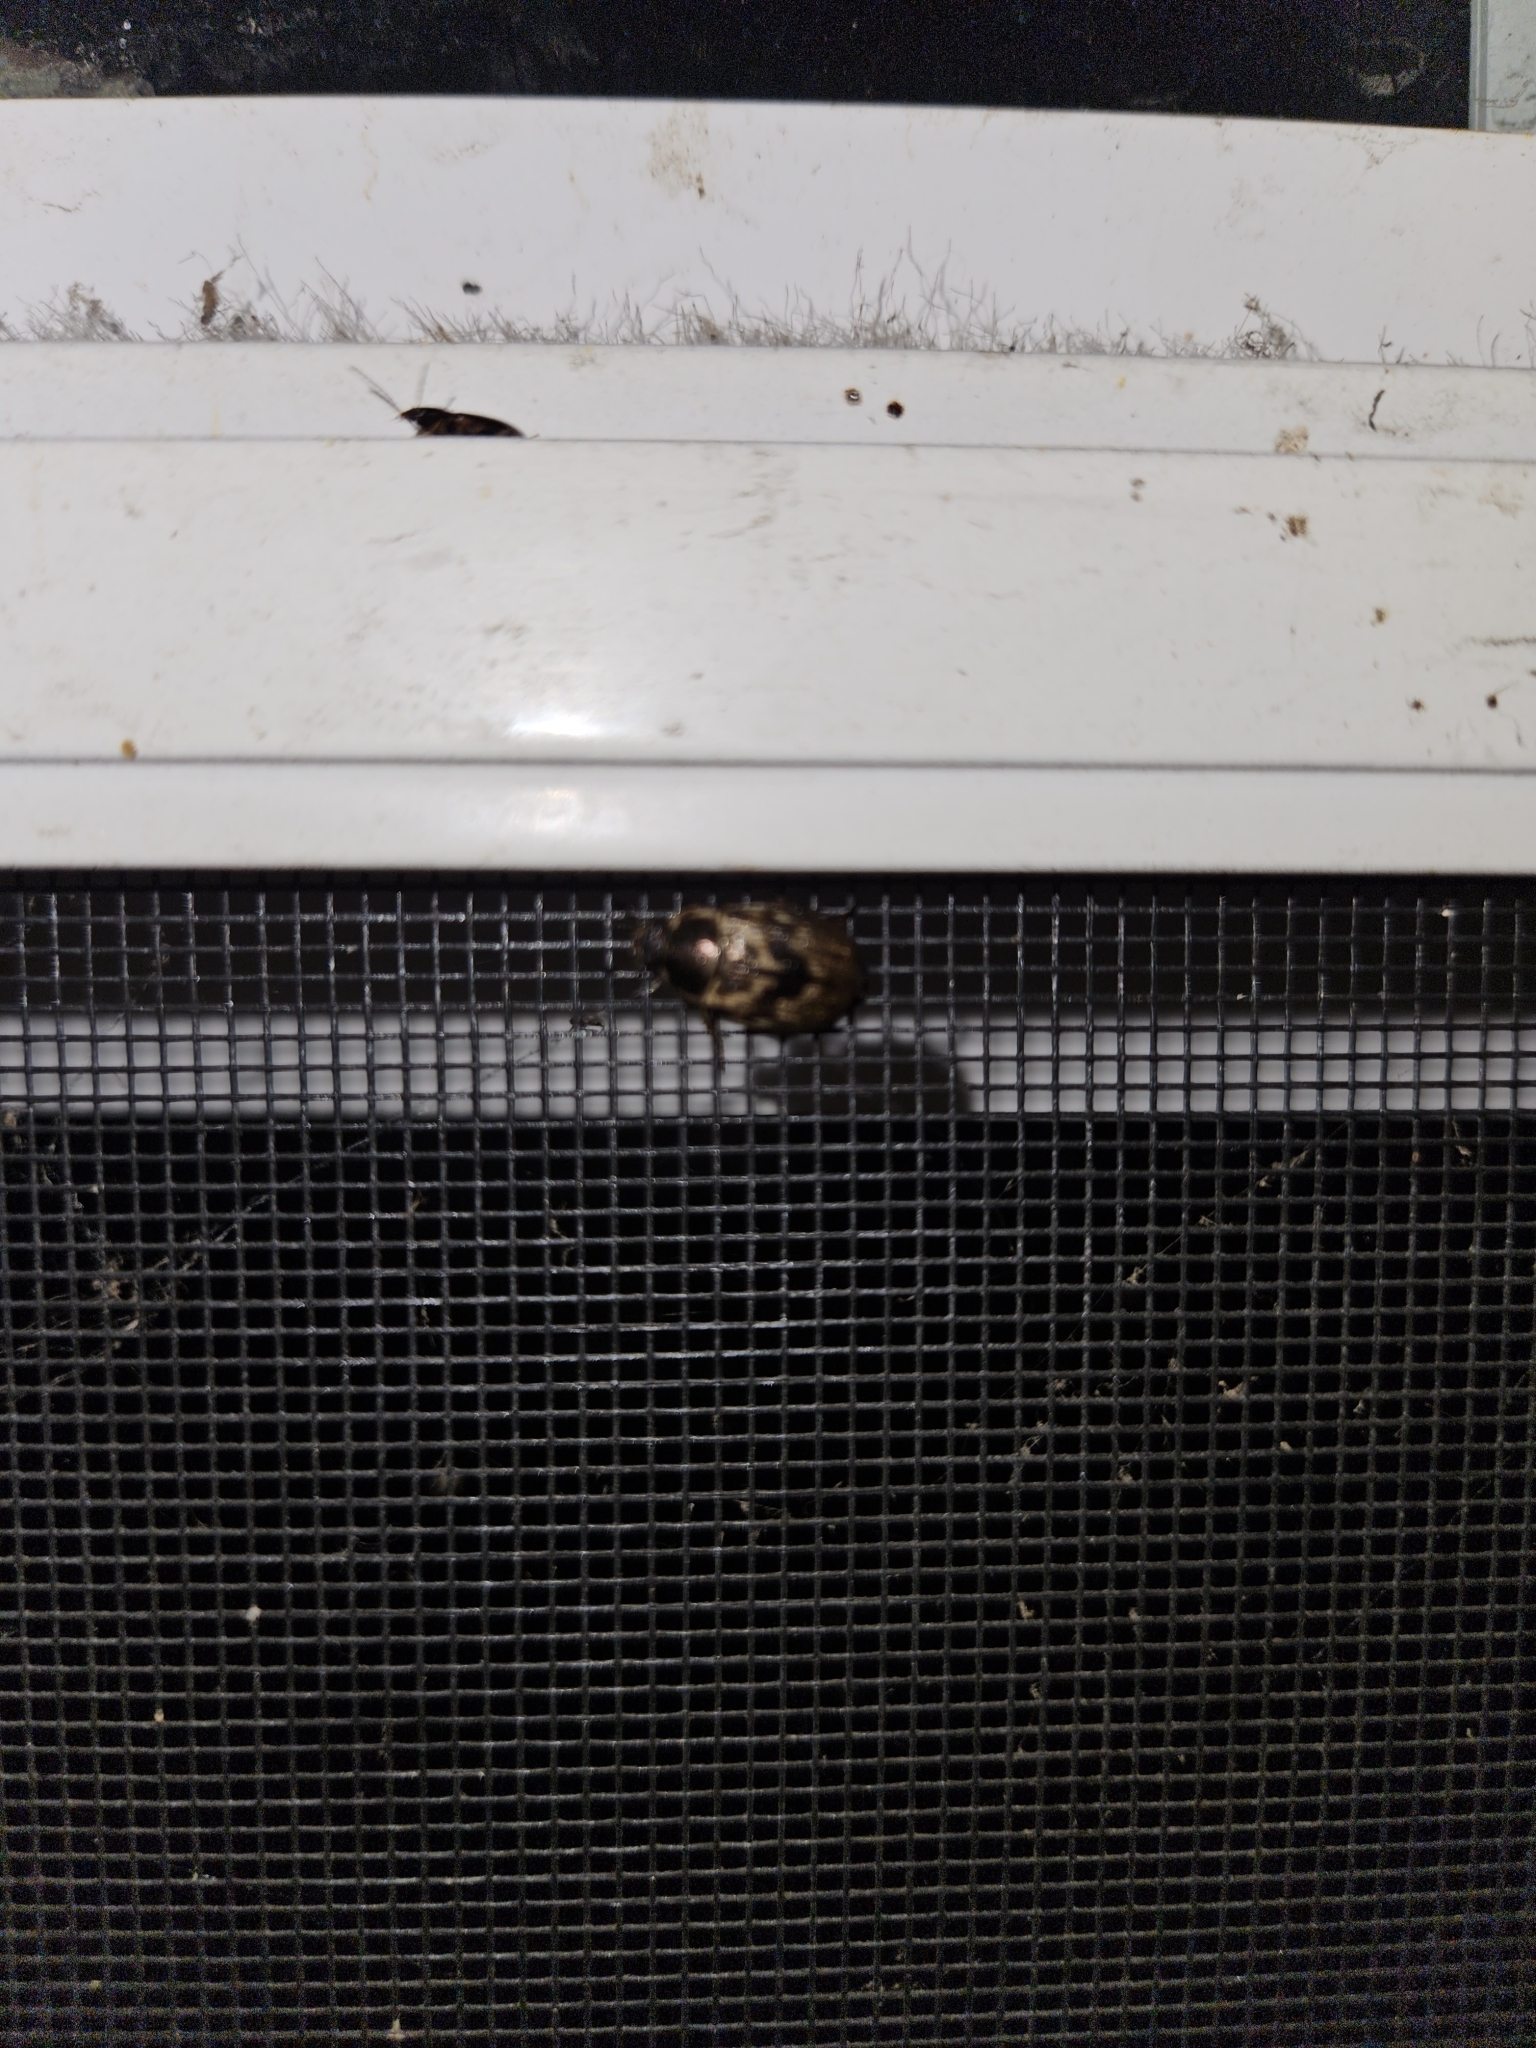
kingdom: Animalia
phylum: Arthropoda
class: Insecta
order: Coleoptera
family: Scarabaeidae
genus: Exomala
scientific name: Exomala orientalis
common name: Oriental beetle
